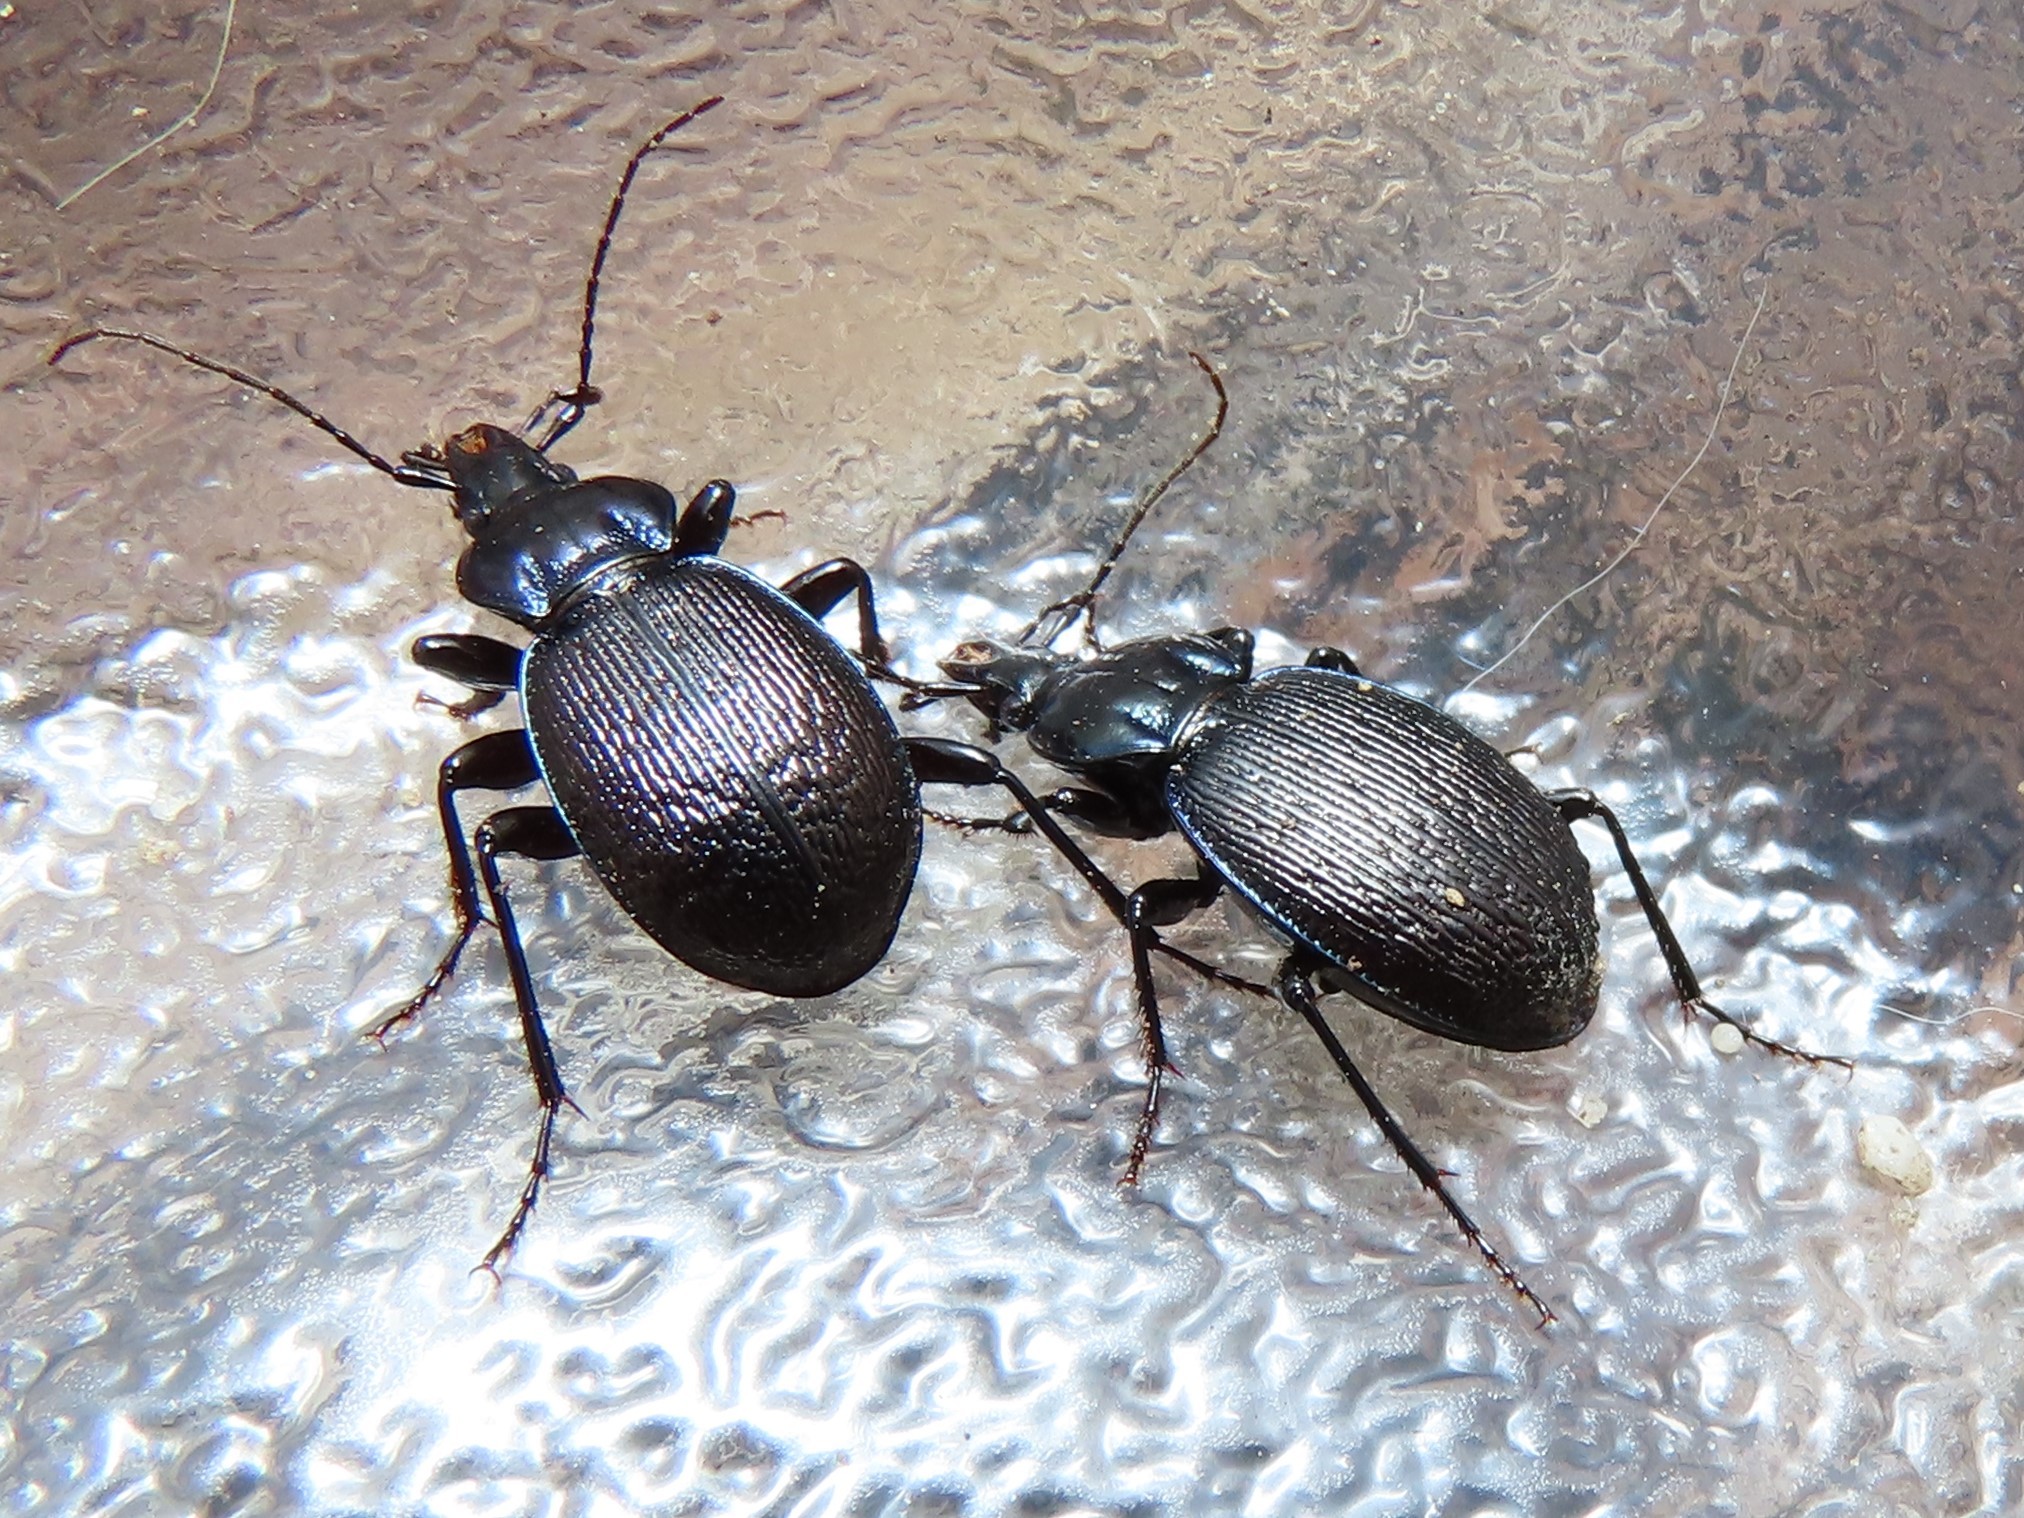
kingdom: Animalia
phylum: Arthropoda
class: Insecta
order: Coleoptera
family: Carabidae
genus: Sphaeroderus
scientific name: Sphaeroderus stenostomus
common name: Small snail-eating ground beetle
